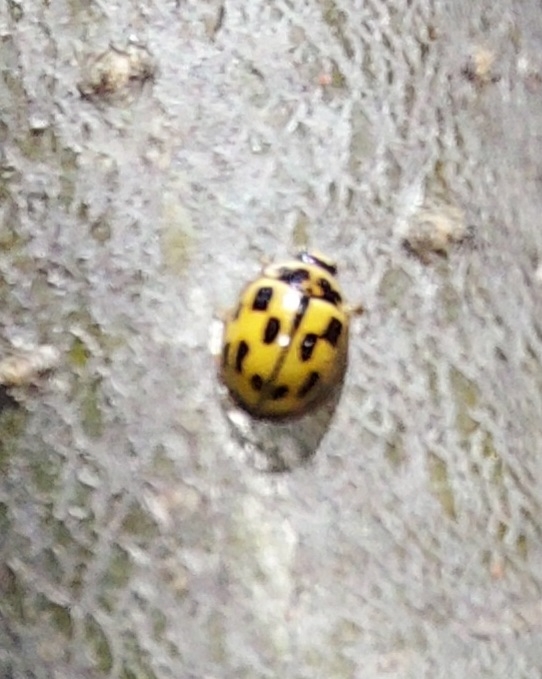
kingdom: Animalia
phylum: Arthropoda
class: Insecta
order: Coleoptera
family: Coccinellidae
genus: Propylaea
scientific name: Propylaea quatuordecimpunctata
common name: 14-spotted ladybird beetle
